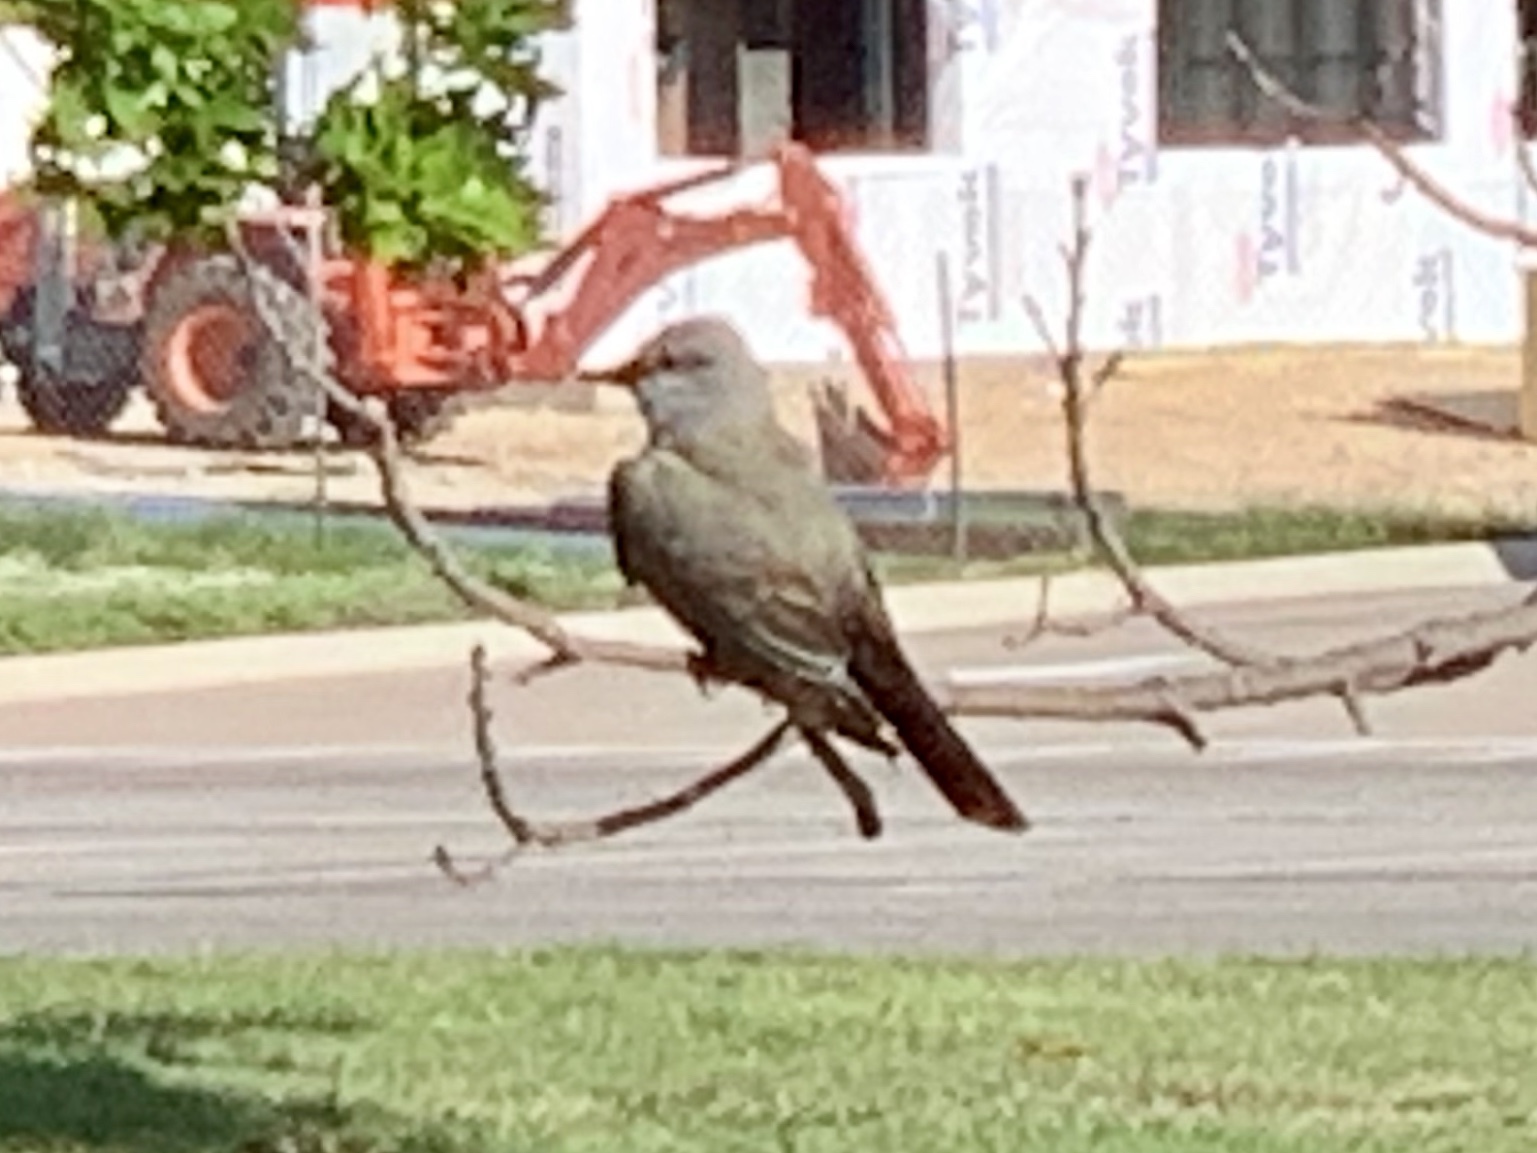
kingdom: Animalia
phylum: Chordata
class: Aves
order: Passeriformes
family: Tyrannidae
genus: Tyrannus
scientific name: Tyrannus verticalis
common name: Western kingbird
